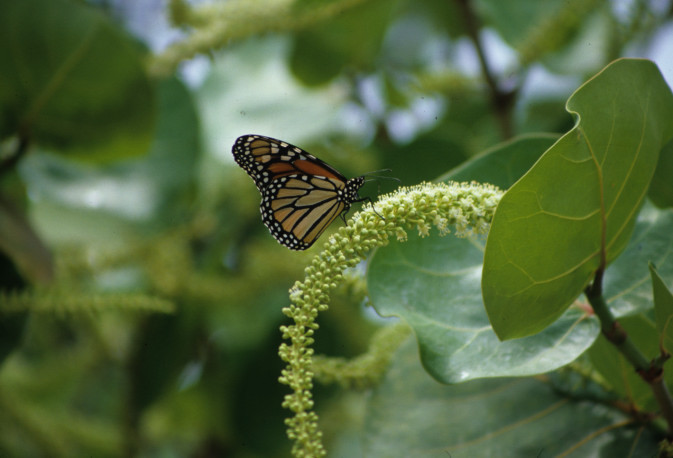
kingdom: Animalia
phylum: Arthropoda
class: Insecta
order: Lepidoptera
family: Nymphalidae
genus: Danaus
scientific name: Danaus plexippus
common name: Monarch
